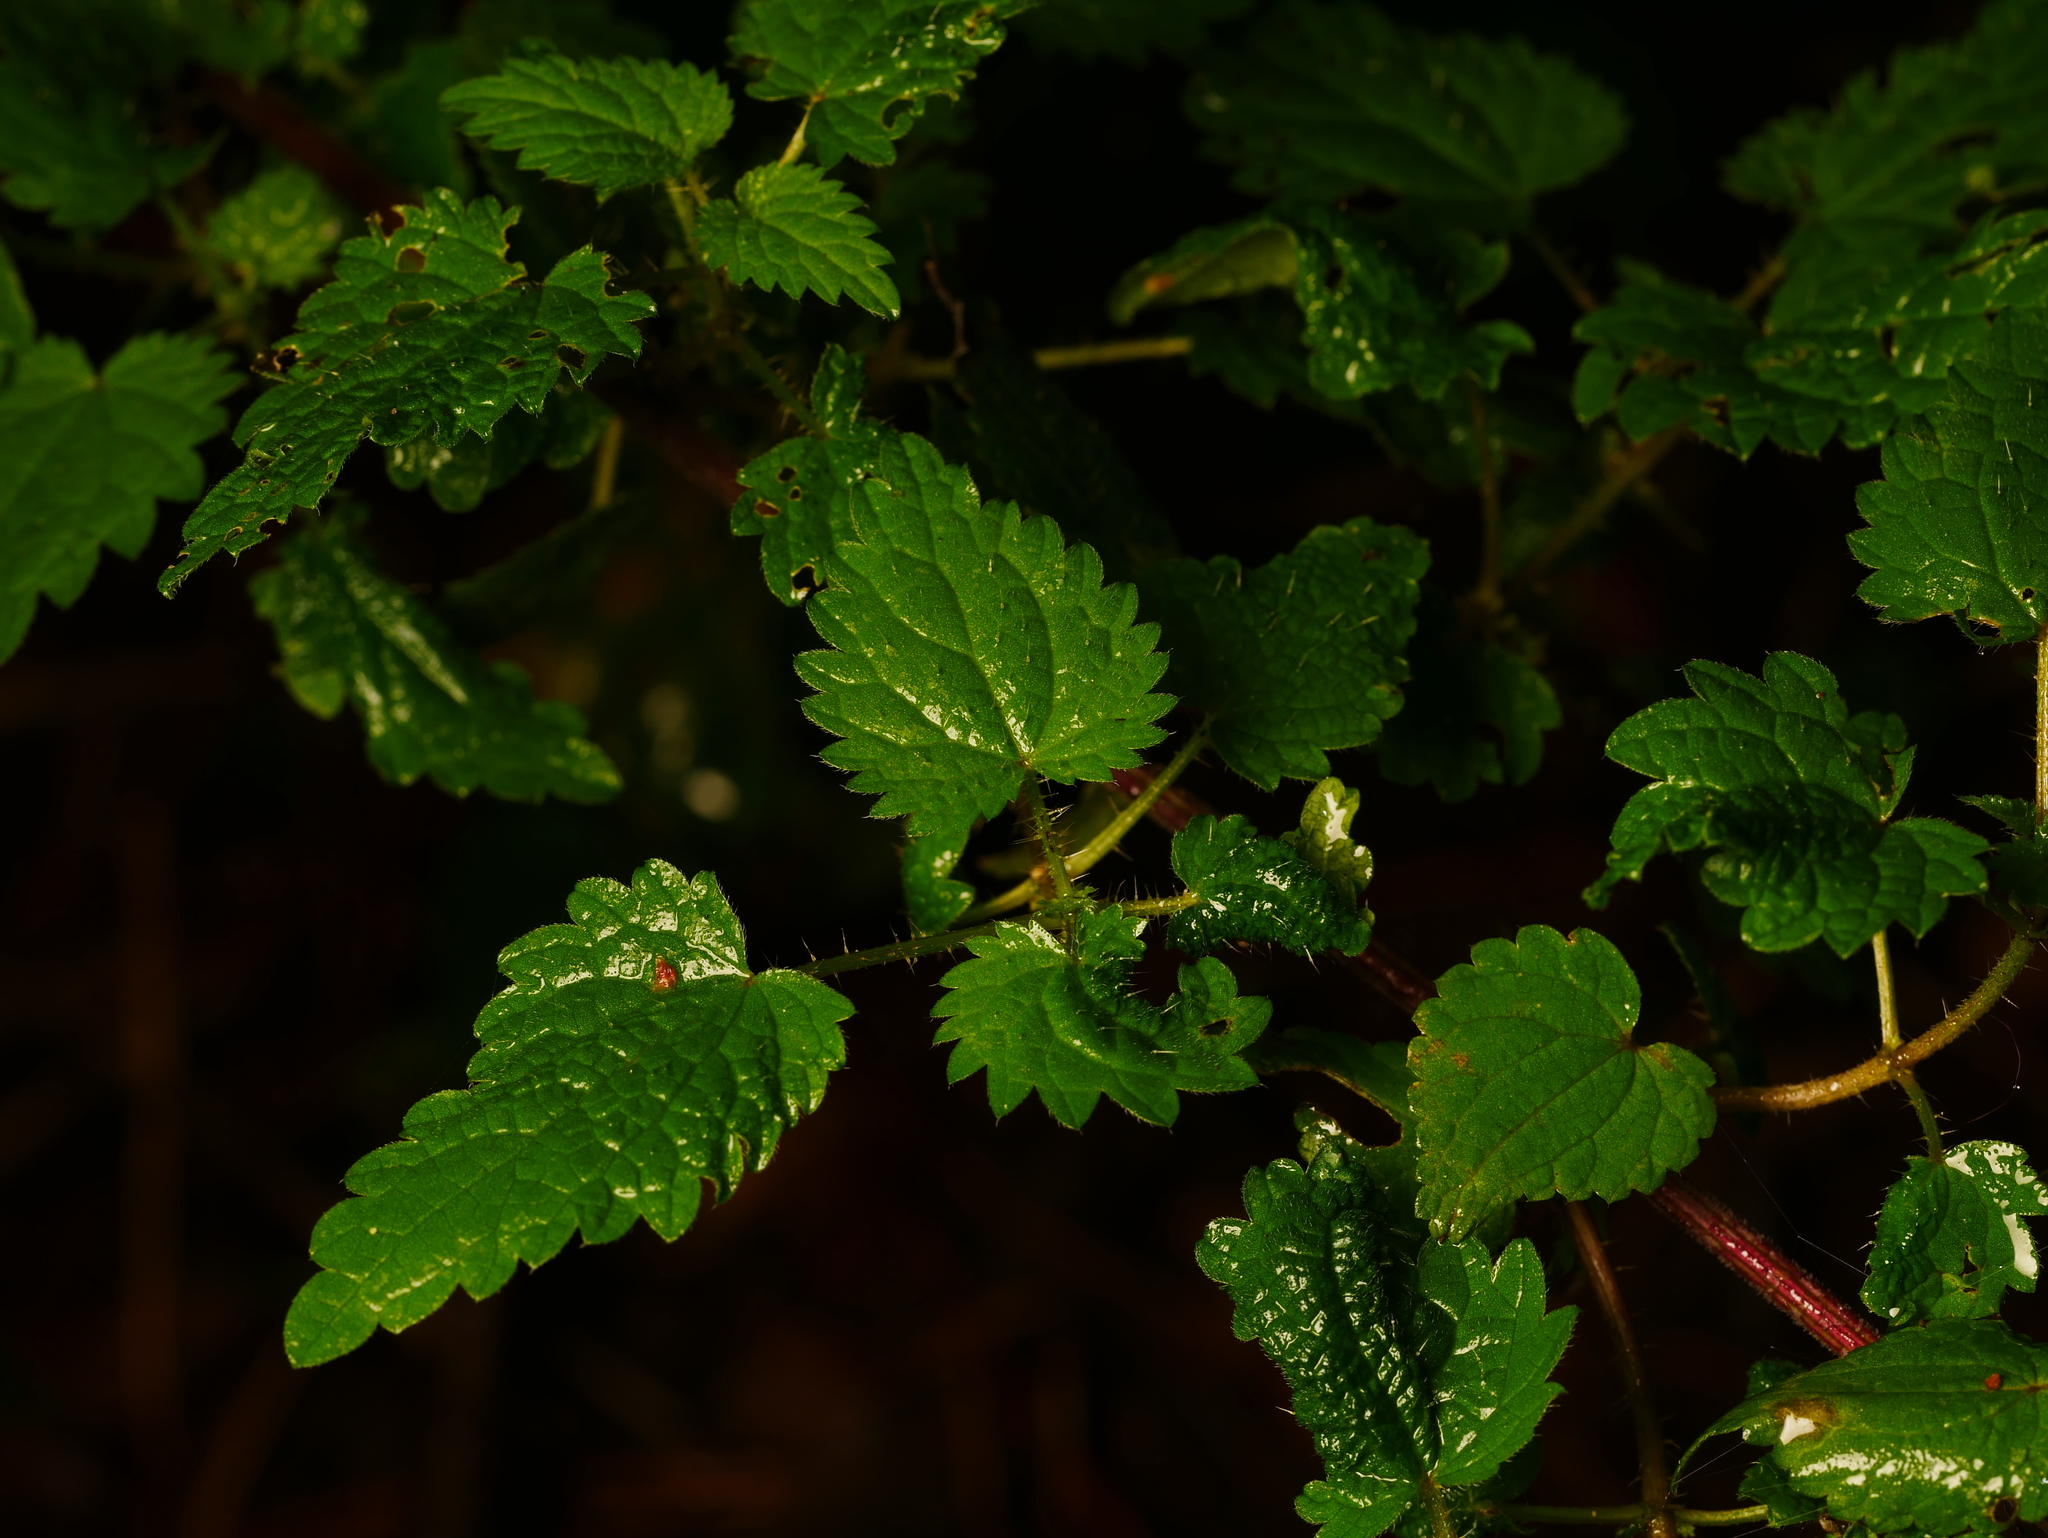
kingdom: Plantae
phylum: Tracheophyta
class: Magnoliopsida
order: Rosales
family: Urticaceae
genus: Urtica
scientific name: Urtica dioica
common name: Common nettle
